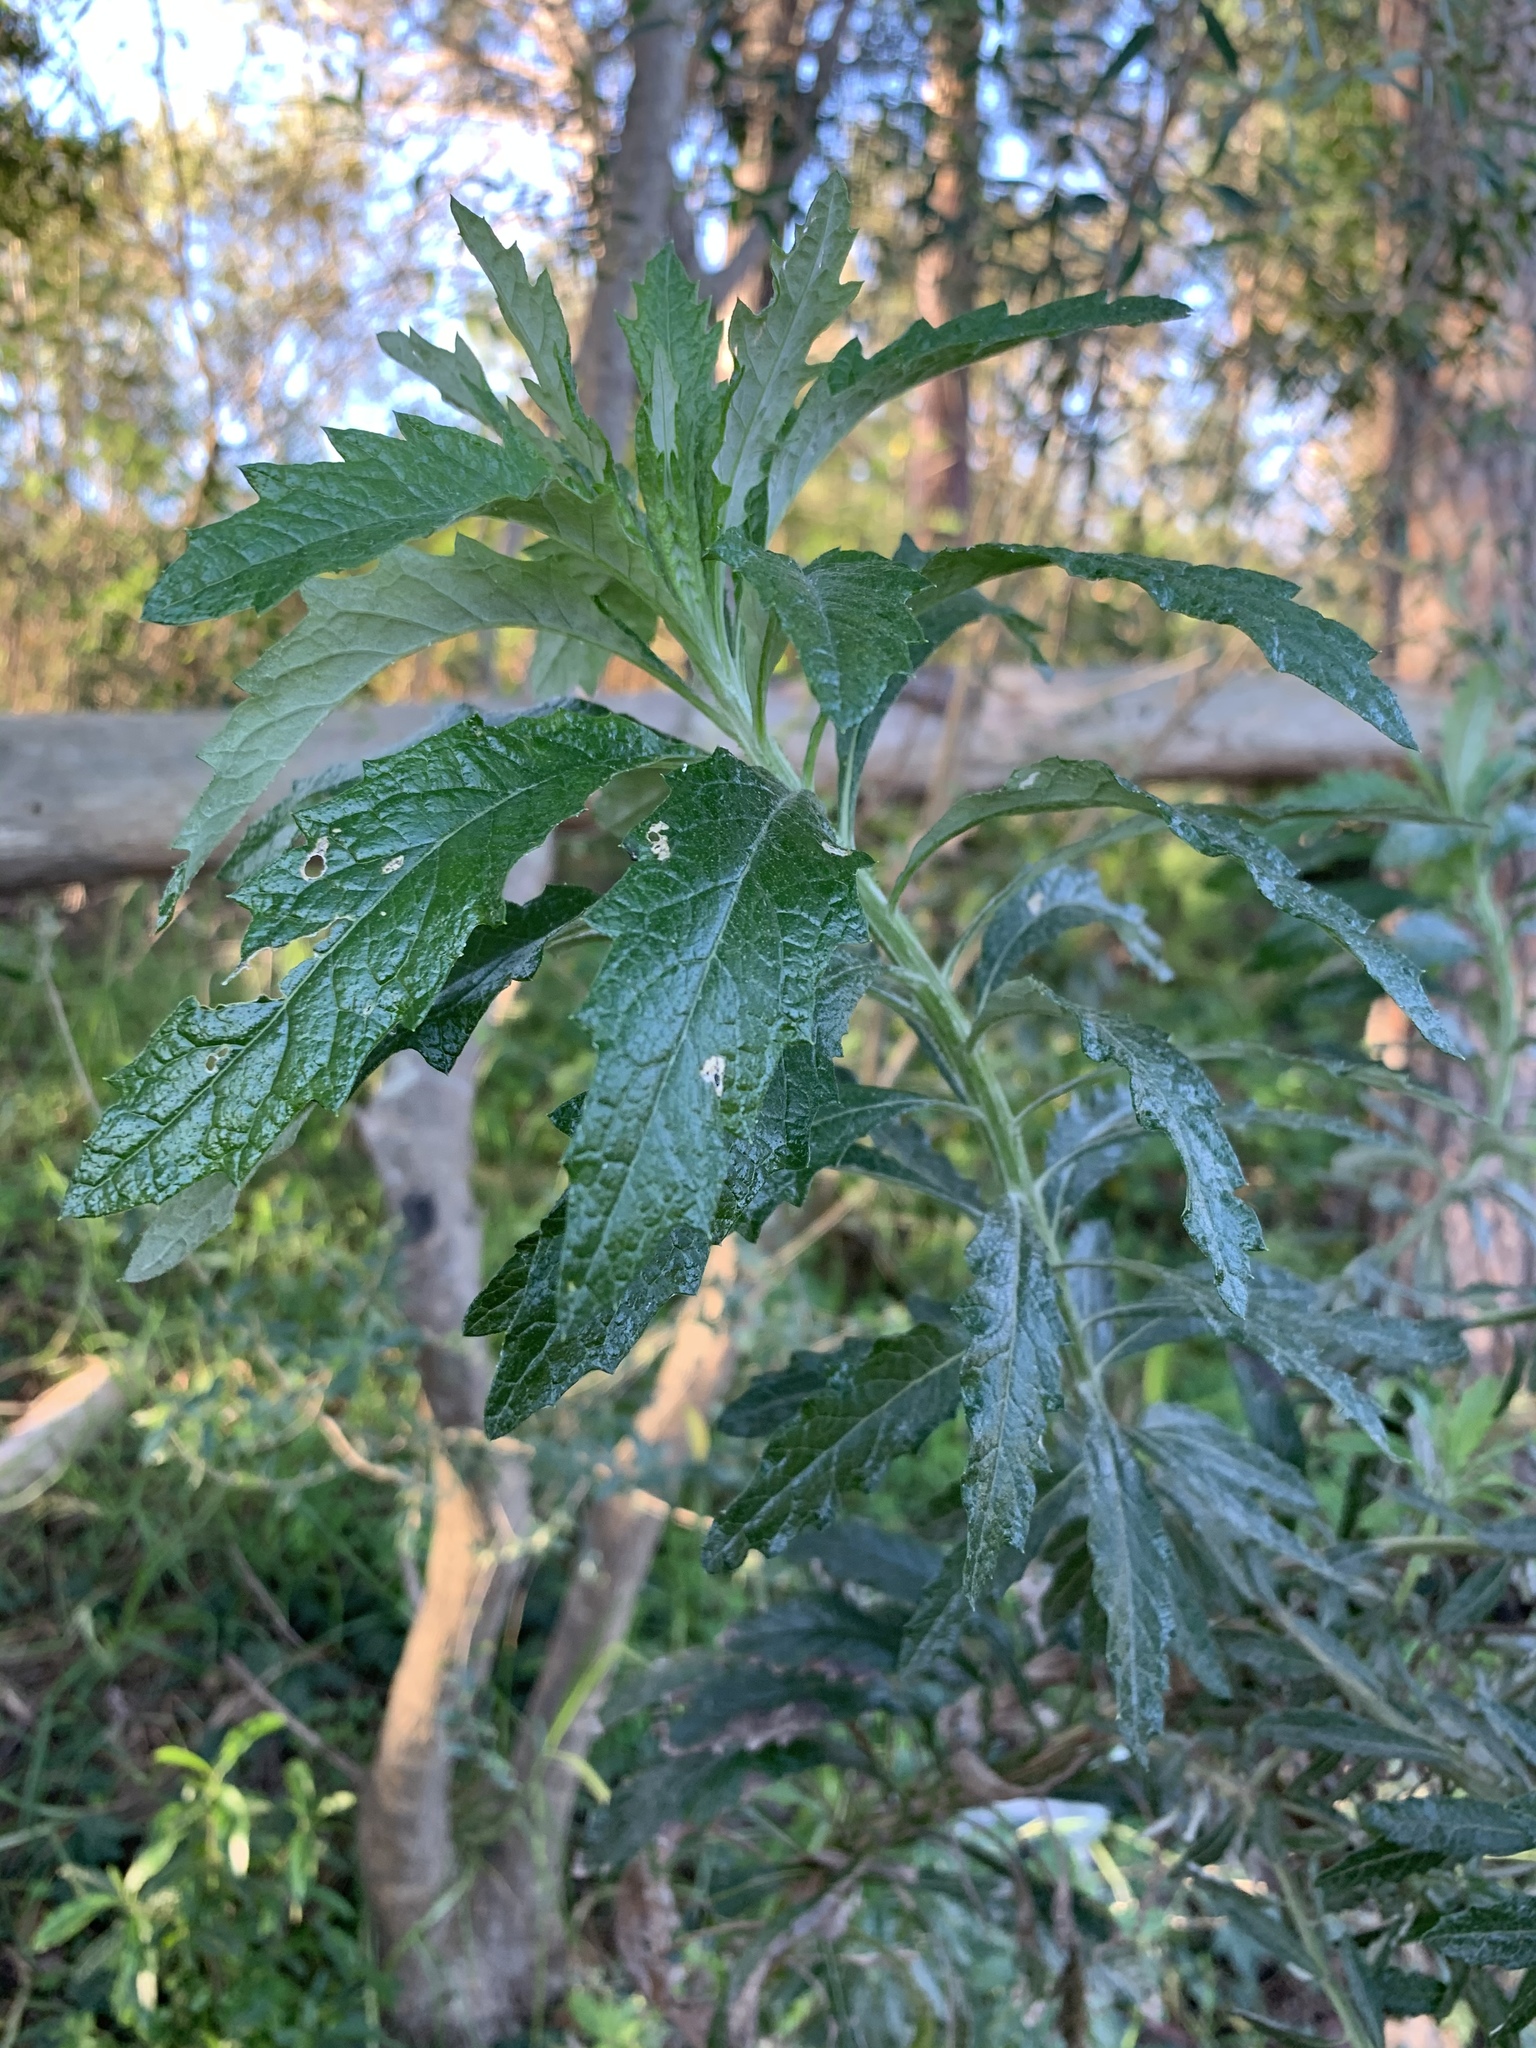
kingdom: Plantae
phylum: Tracheophyta
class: Magnoliopsida
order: Asterales
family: Asteraceae
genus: Senecio
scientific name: Senecio pterophorus
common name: Shoddy ragwort
